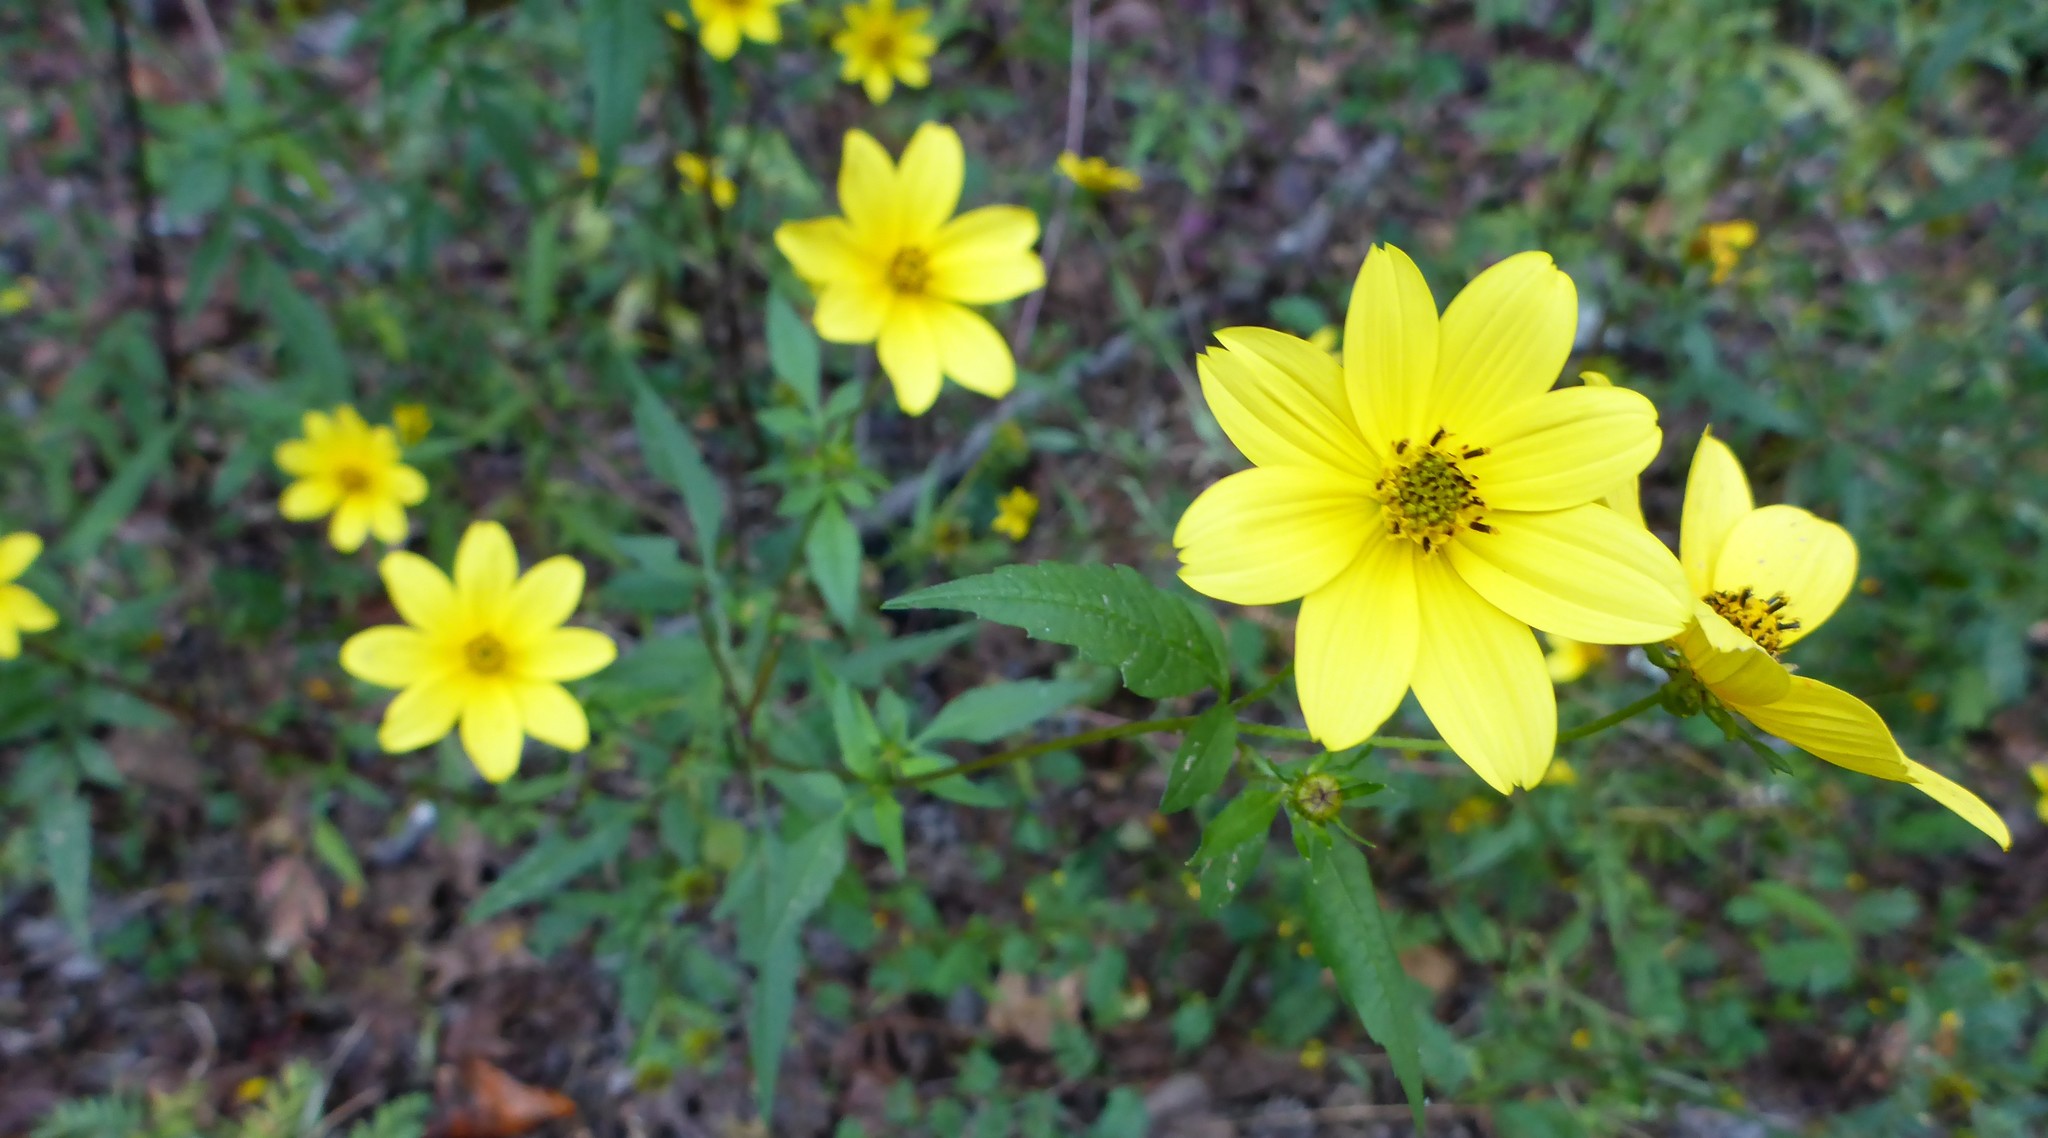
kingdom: Plantae
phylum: Tracheophyta
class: Magnoliopsida
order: Asterales
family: Asteraceae
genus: Bidens
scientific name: Bidens aristosa
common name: Western tickseed
